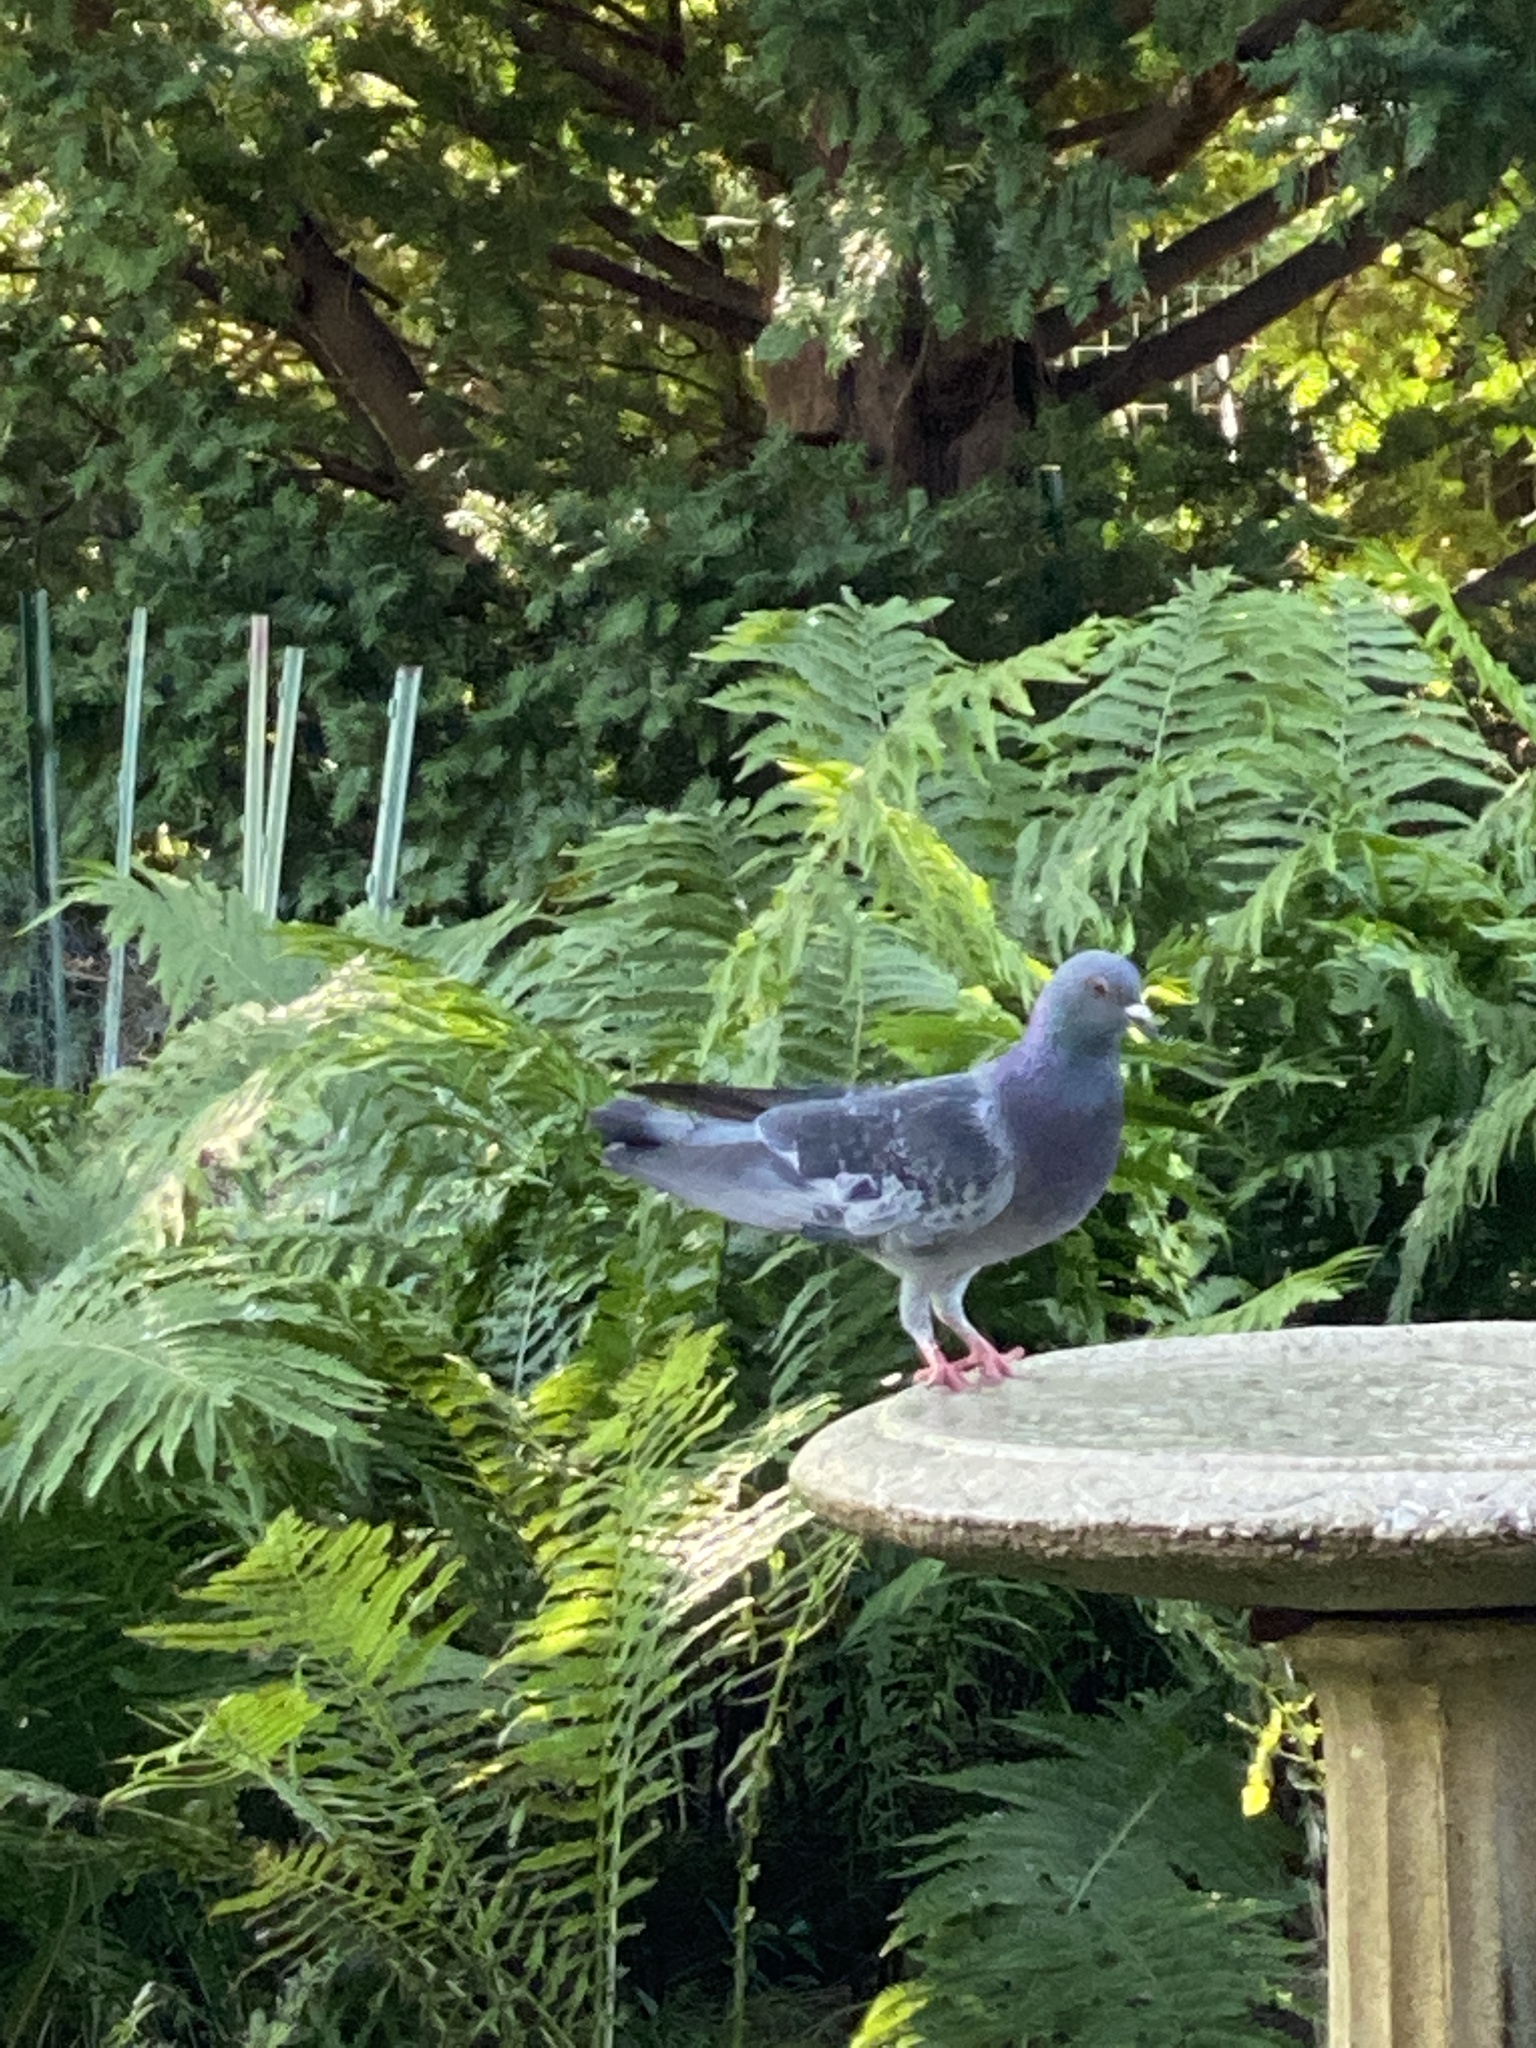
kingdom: Animalia
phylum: Chordata
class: Aves
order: Columbiformes
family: Columbidae
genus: Columba
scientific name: Columba livia
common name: Rock pigeon
